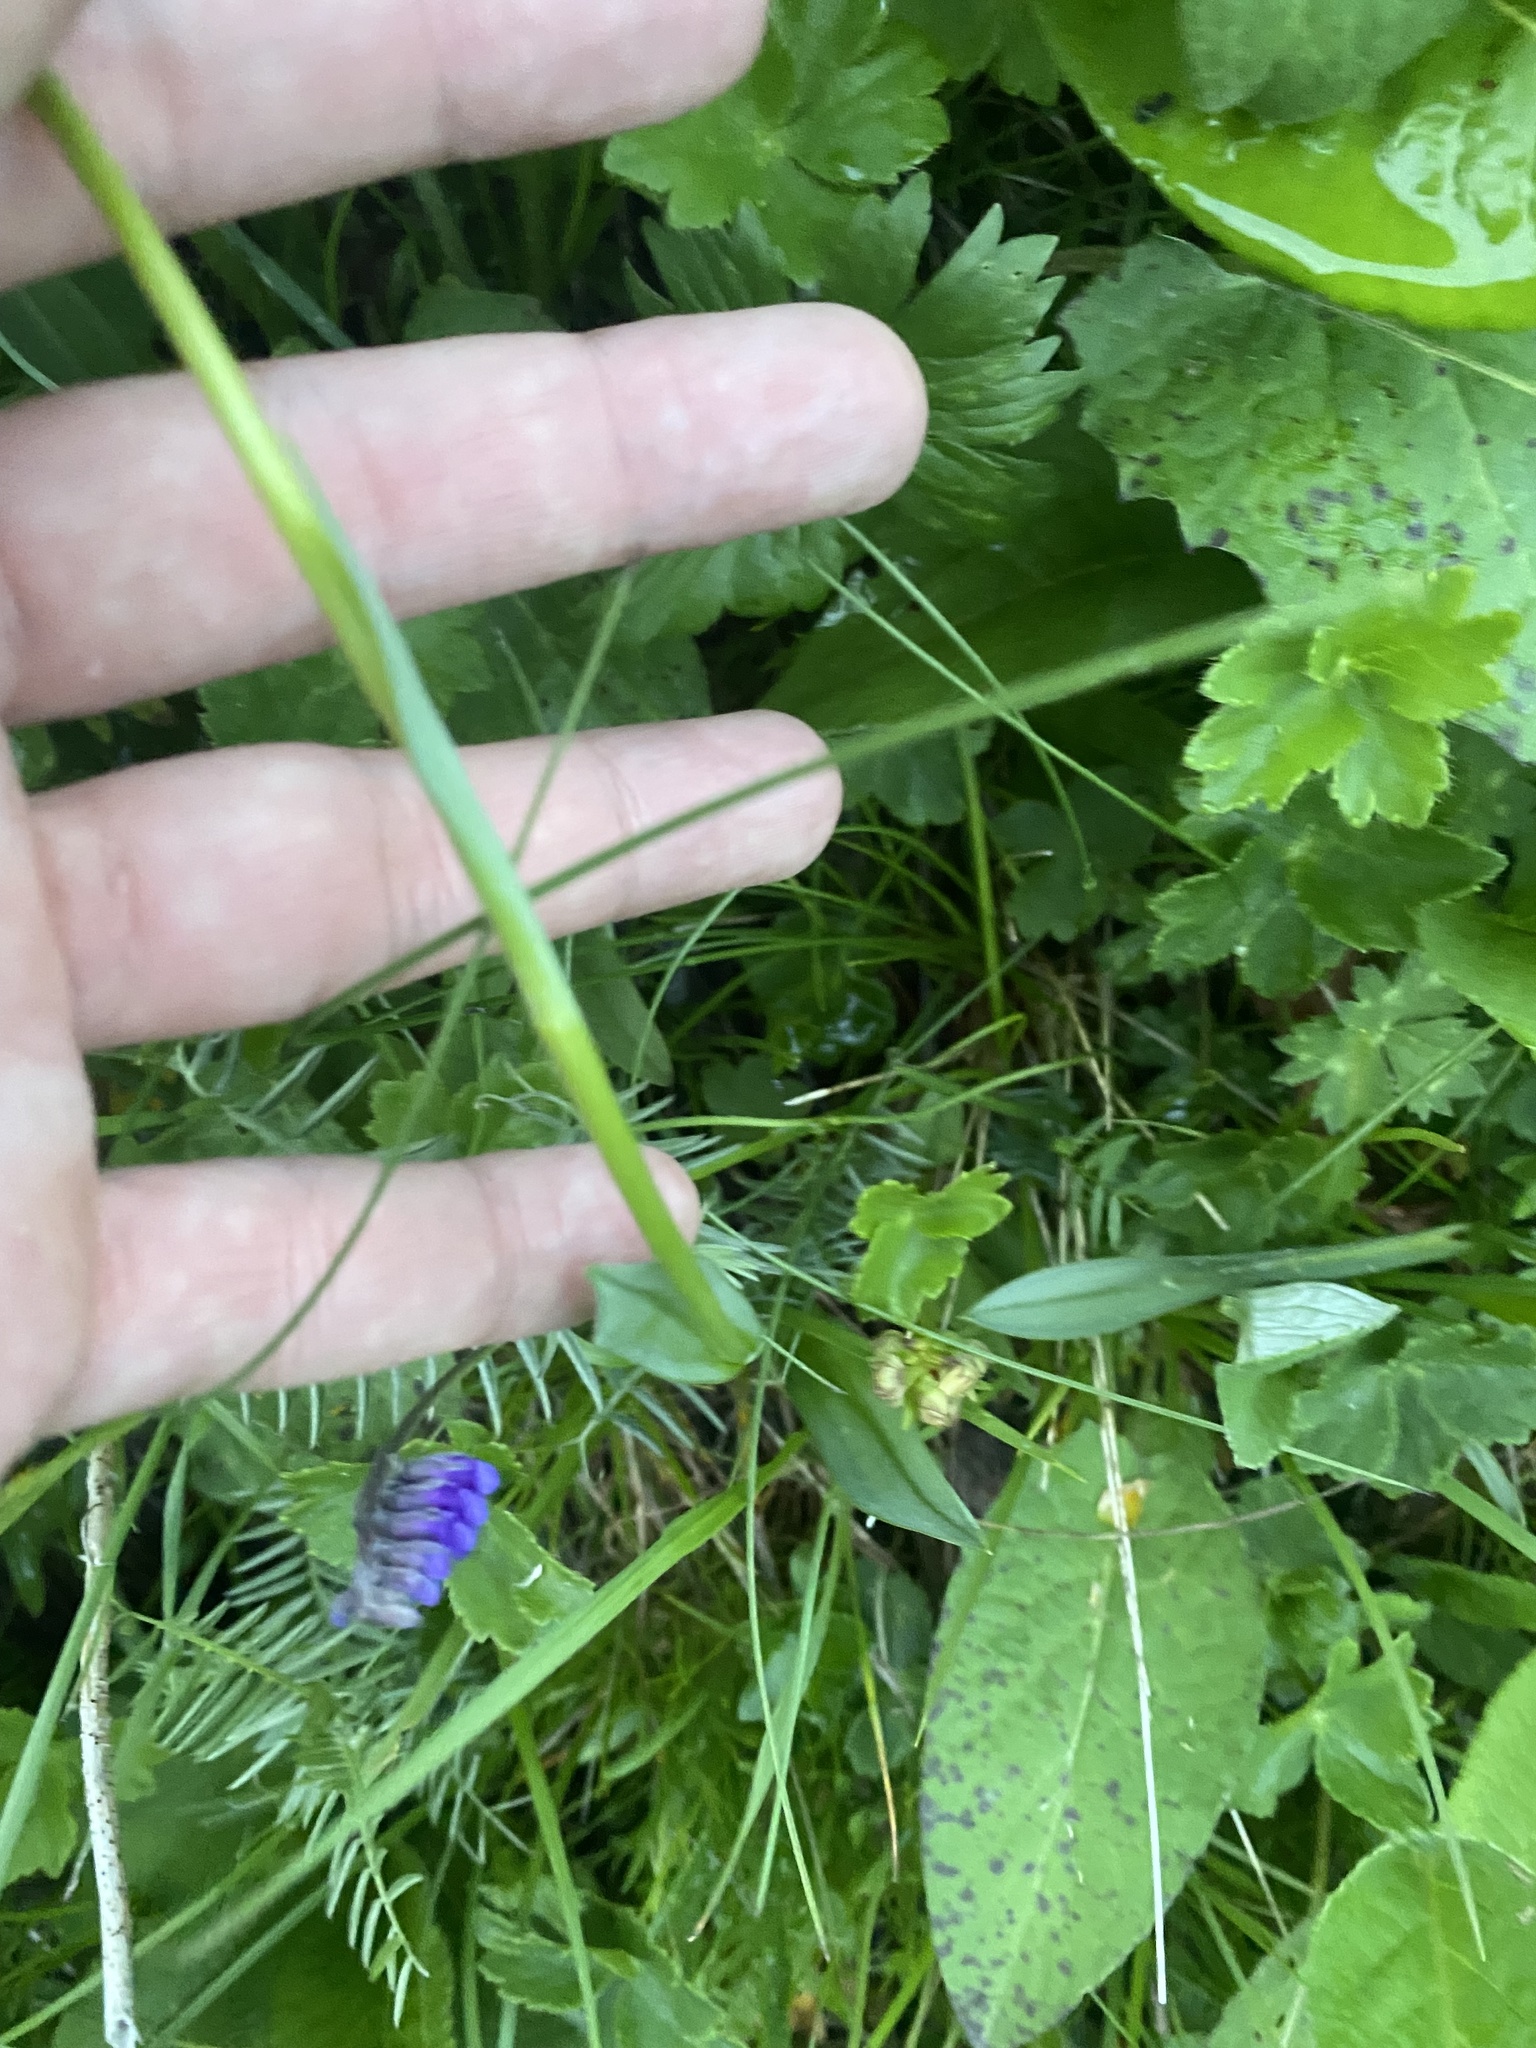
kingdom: Plantae
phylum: Tracheophyta
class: Liliopsida
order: Asparagales
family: Orchidaceae
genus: Traunsteinera
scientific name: Traunsteinera sphaerica
